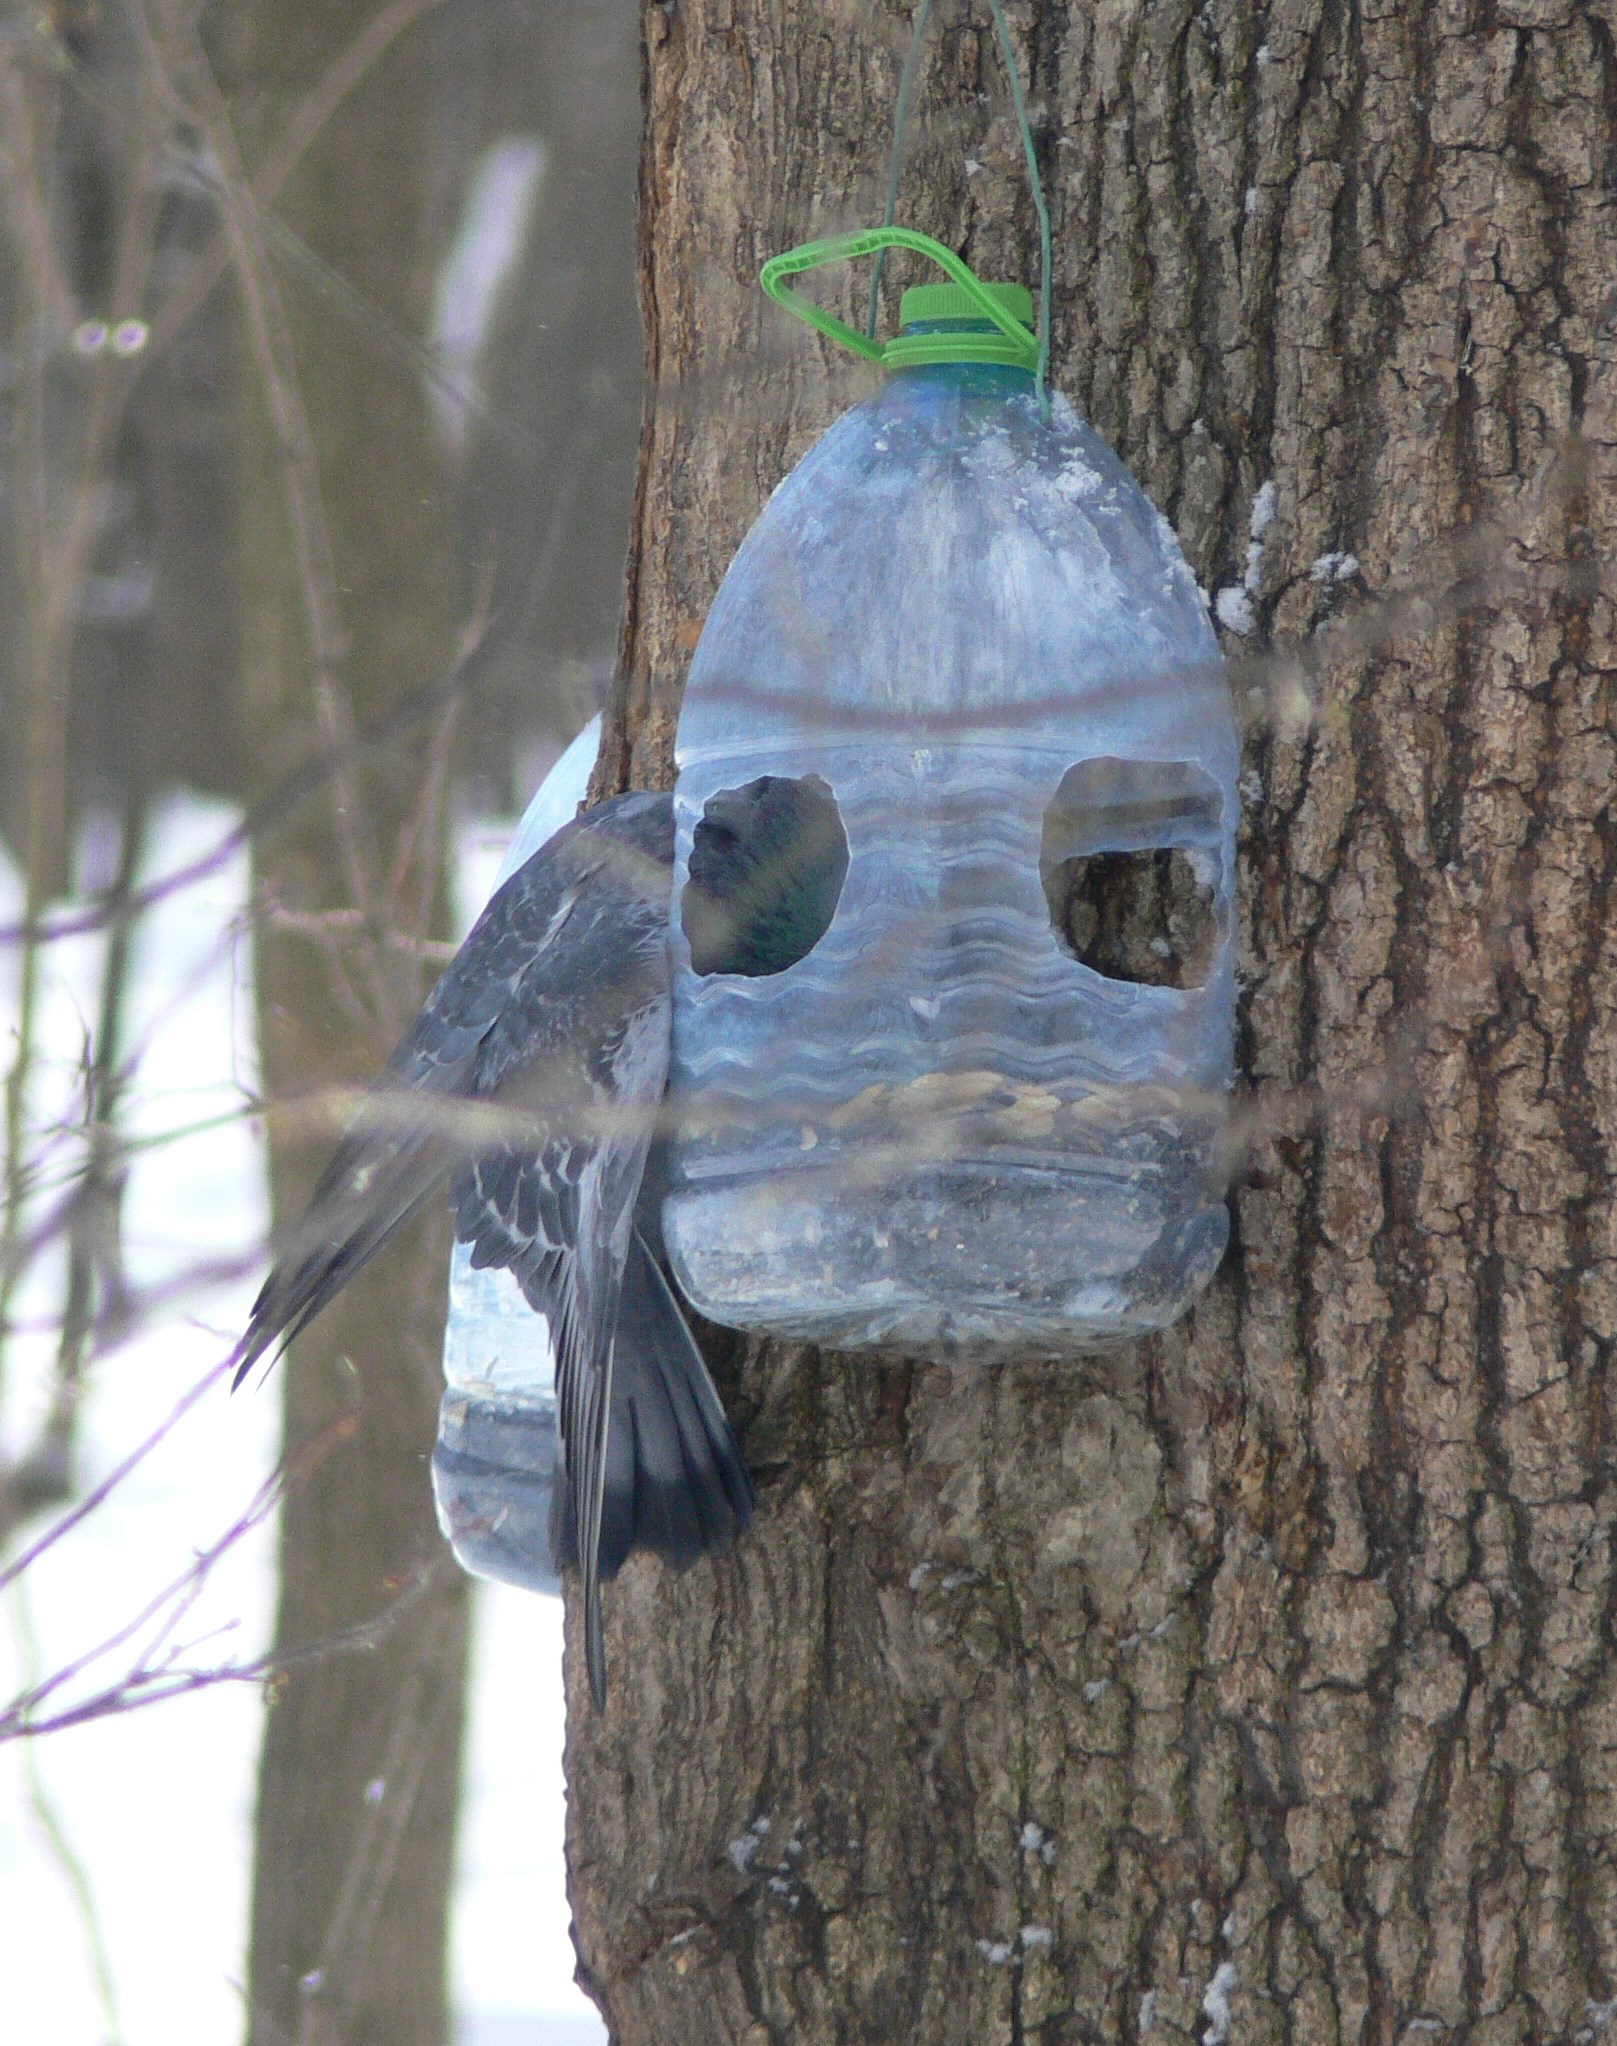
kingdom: Animalia
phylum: Chordata
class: Aves
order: Columbiformes
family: Columbidae
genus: Columba
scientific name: Columba livia
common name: Rock pigeon
